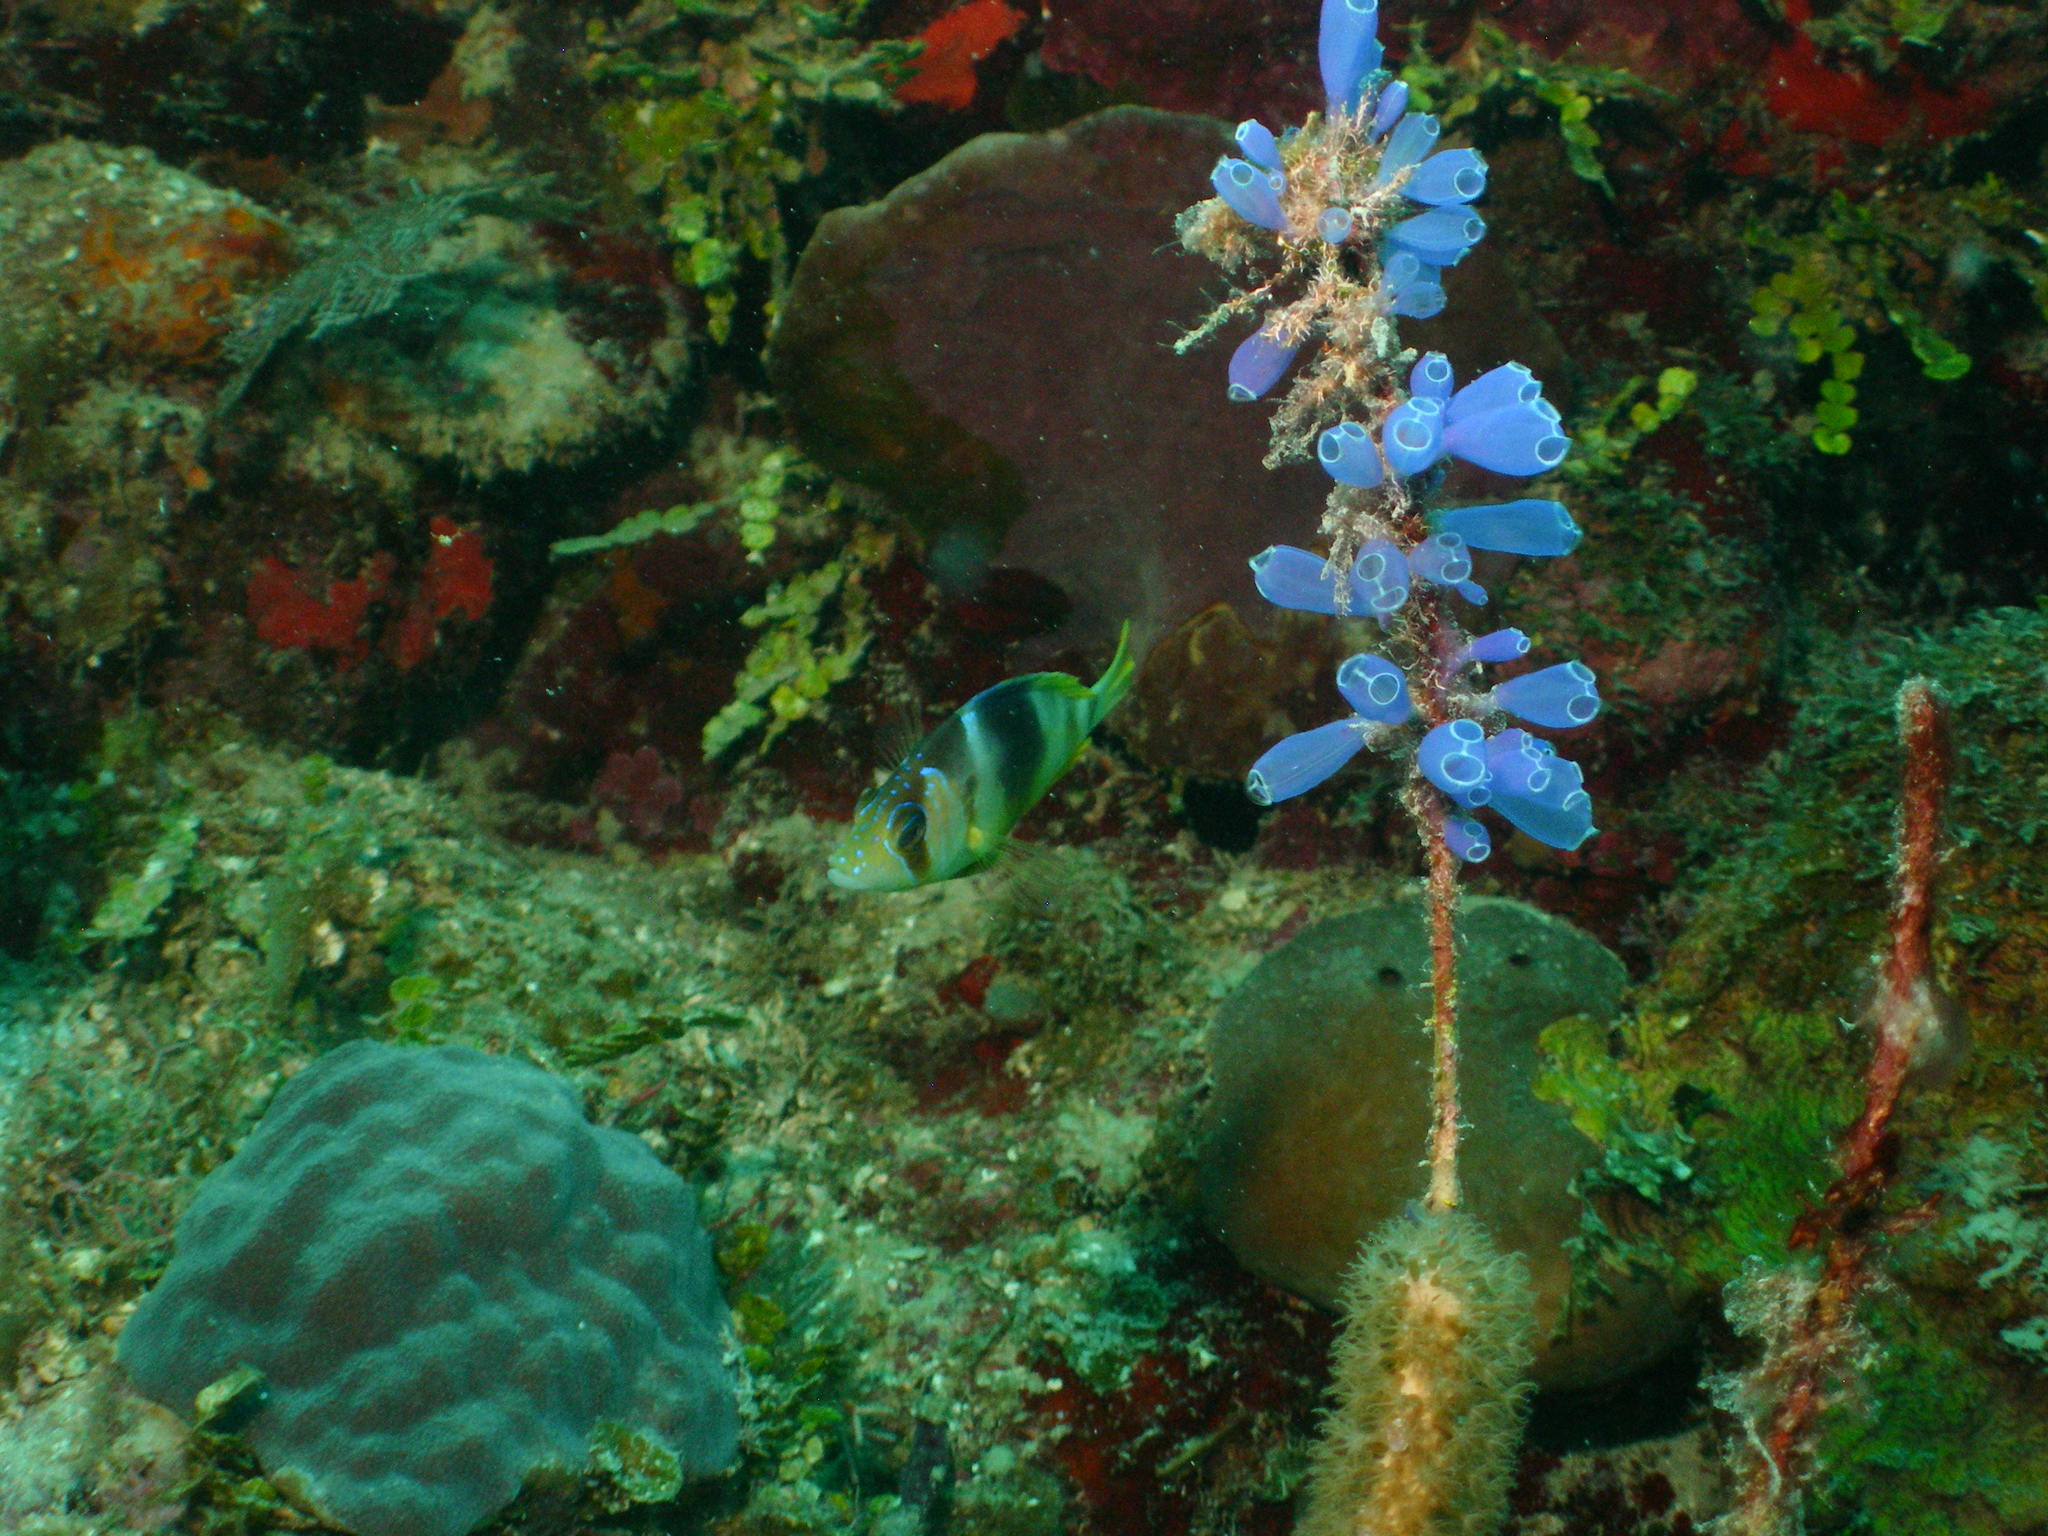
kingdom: Animalia
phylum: Chordata
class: Ascidiacea
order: Aplousobranchia
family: Clavelinidae
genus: Clavelina
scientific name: Clavelina puertosecensis
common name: Blue bell tunicate
